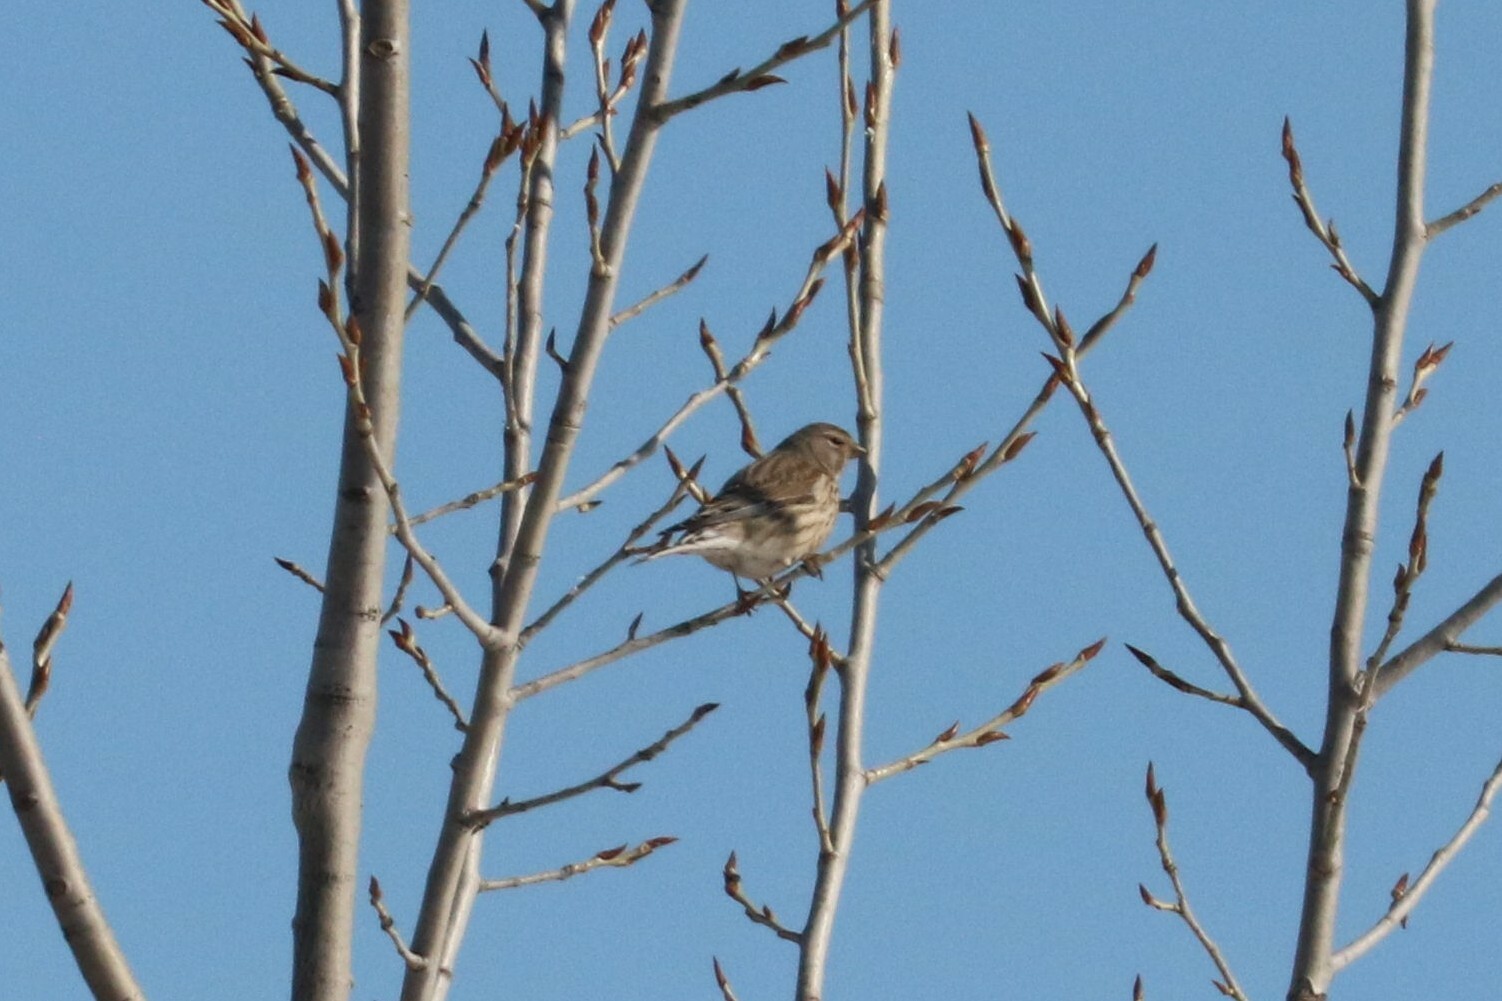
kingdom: Animalia
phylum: Chordata
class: Aves
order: Passeriformes
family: Fringillidae
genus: Linaria
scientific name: Linaria cannabina
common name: Common linnet
